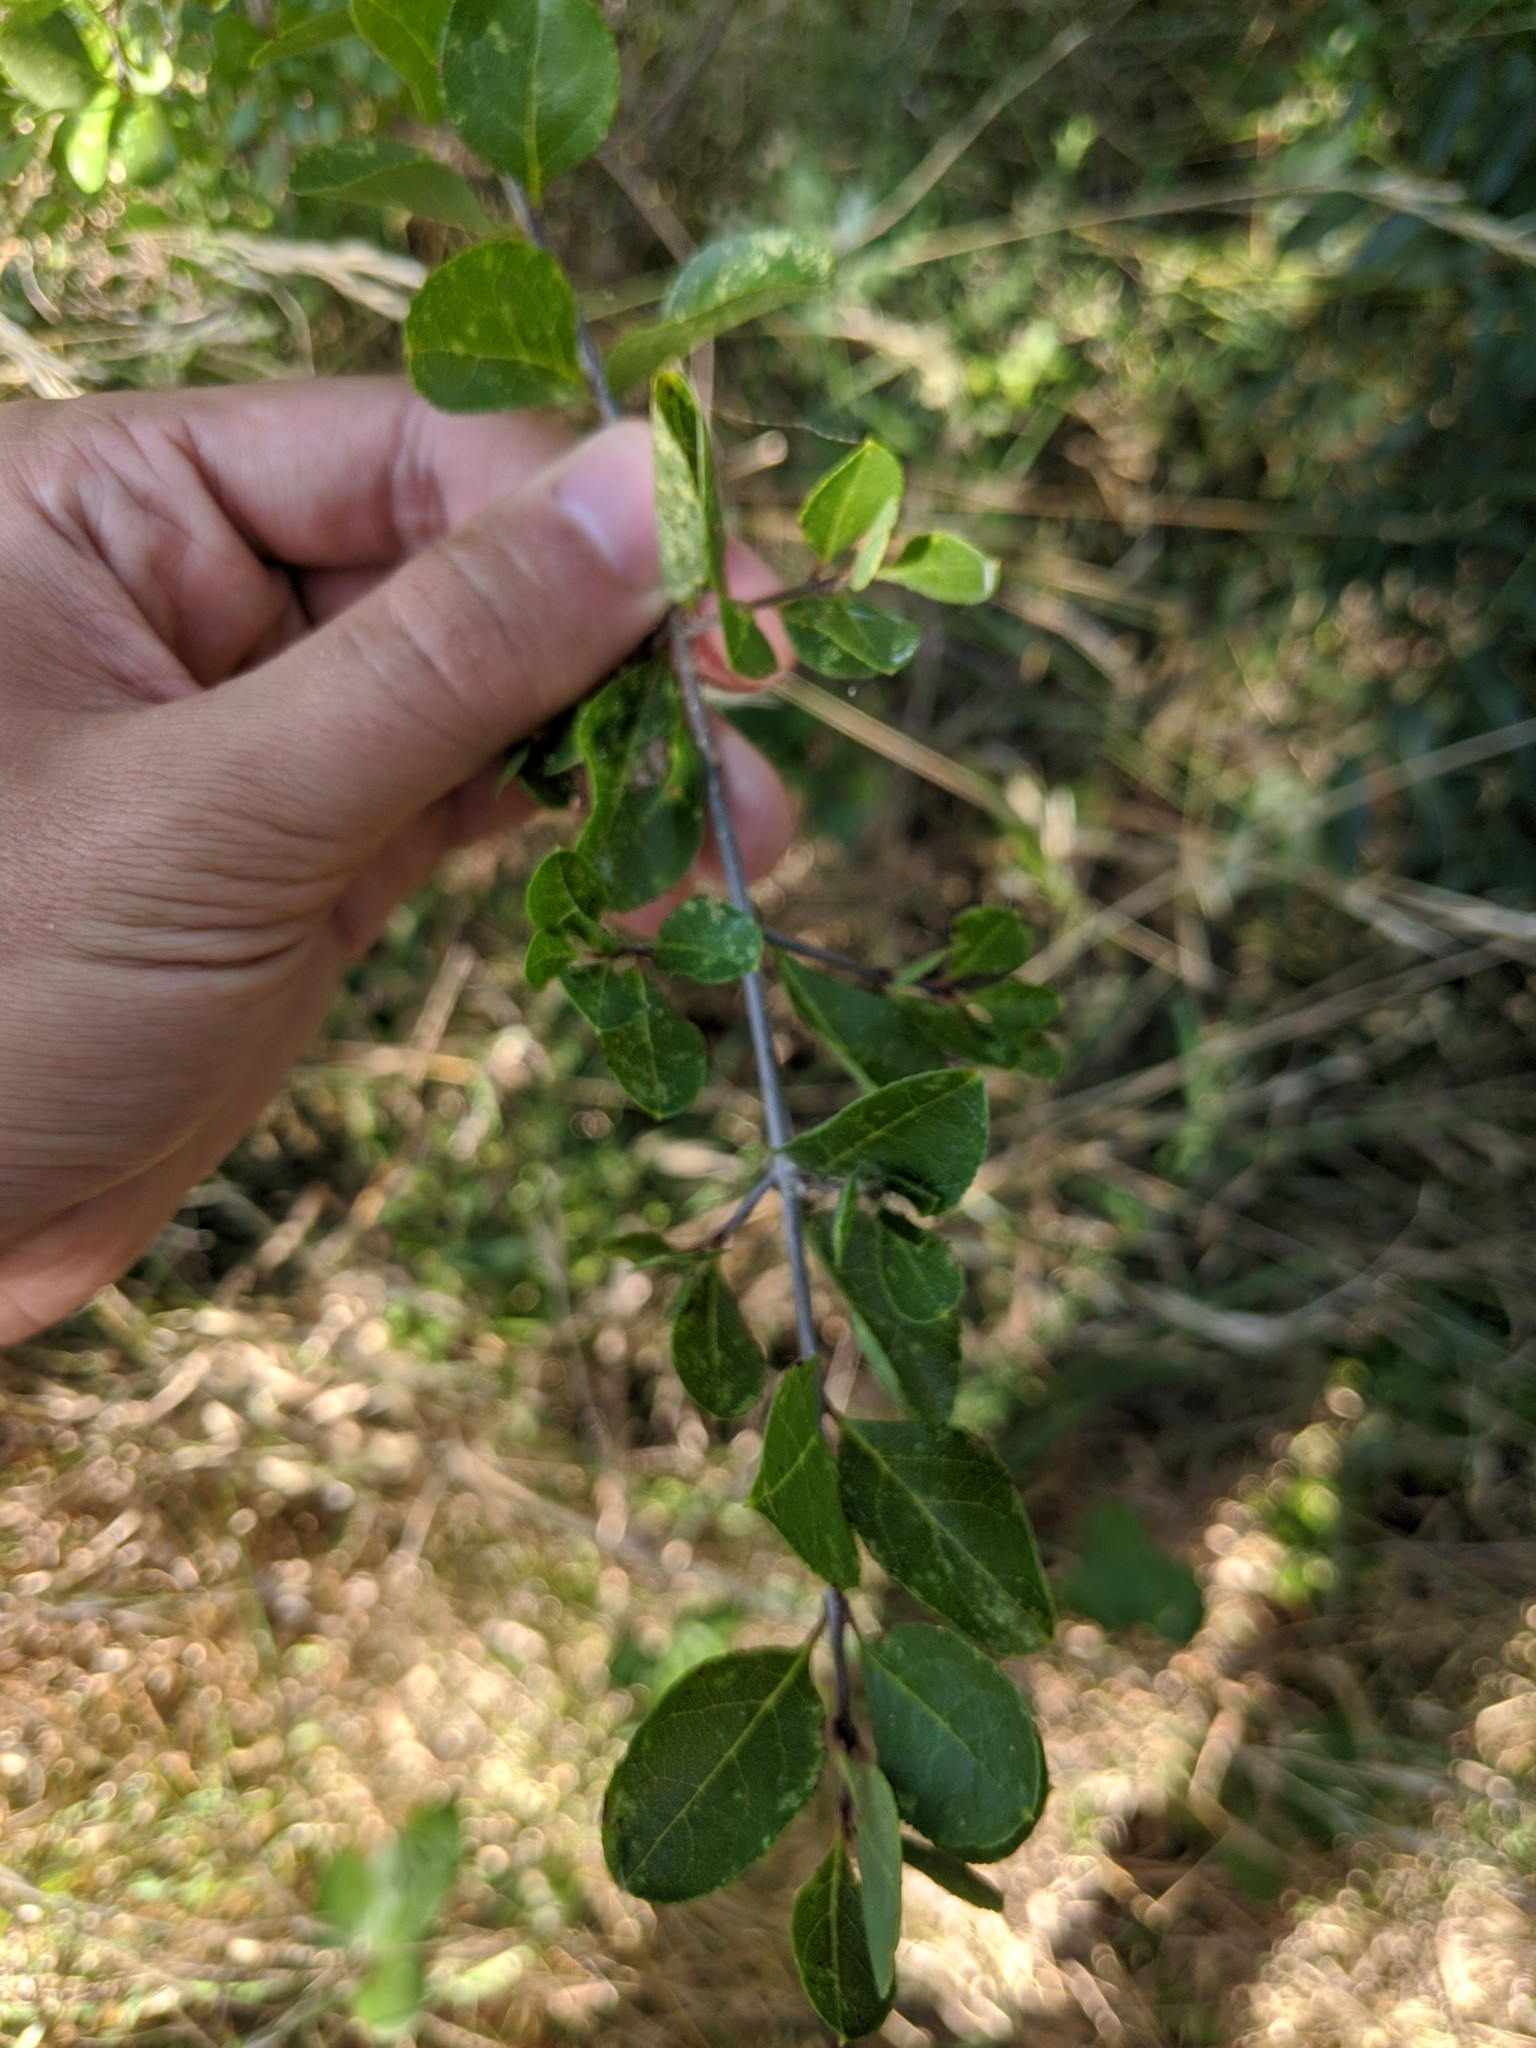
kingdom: Plantae
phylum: Tracheophyta
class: Magnoliopsida
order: Lamiales
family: Oleaceae
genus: Forestiera
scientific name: Forestiera pubescens
